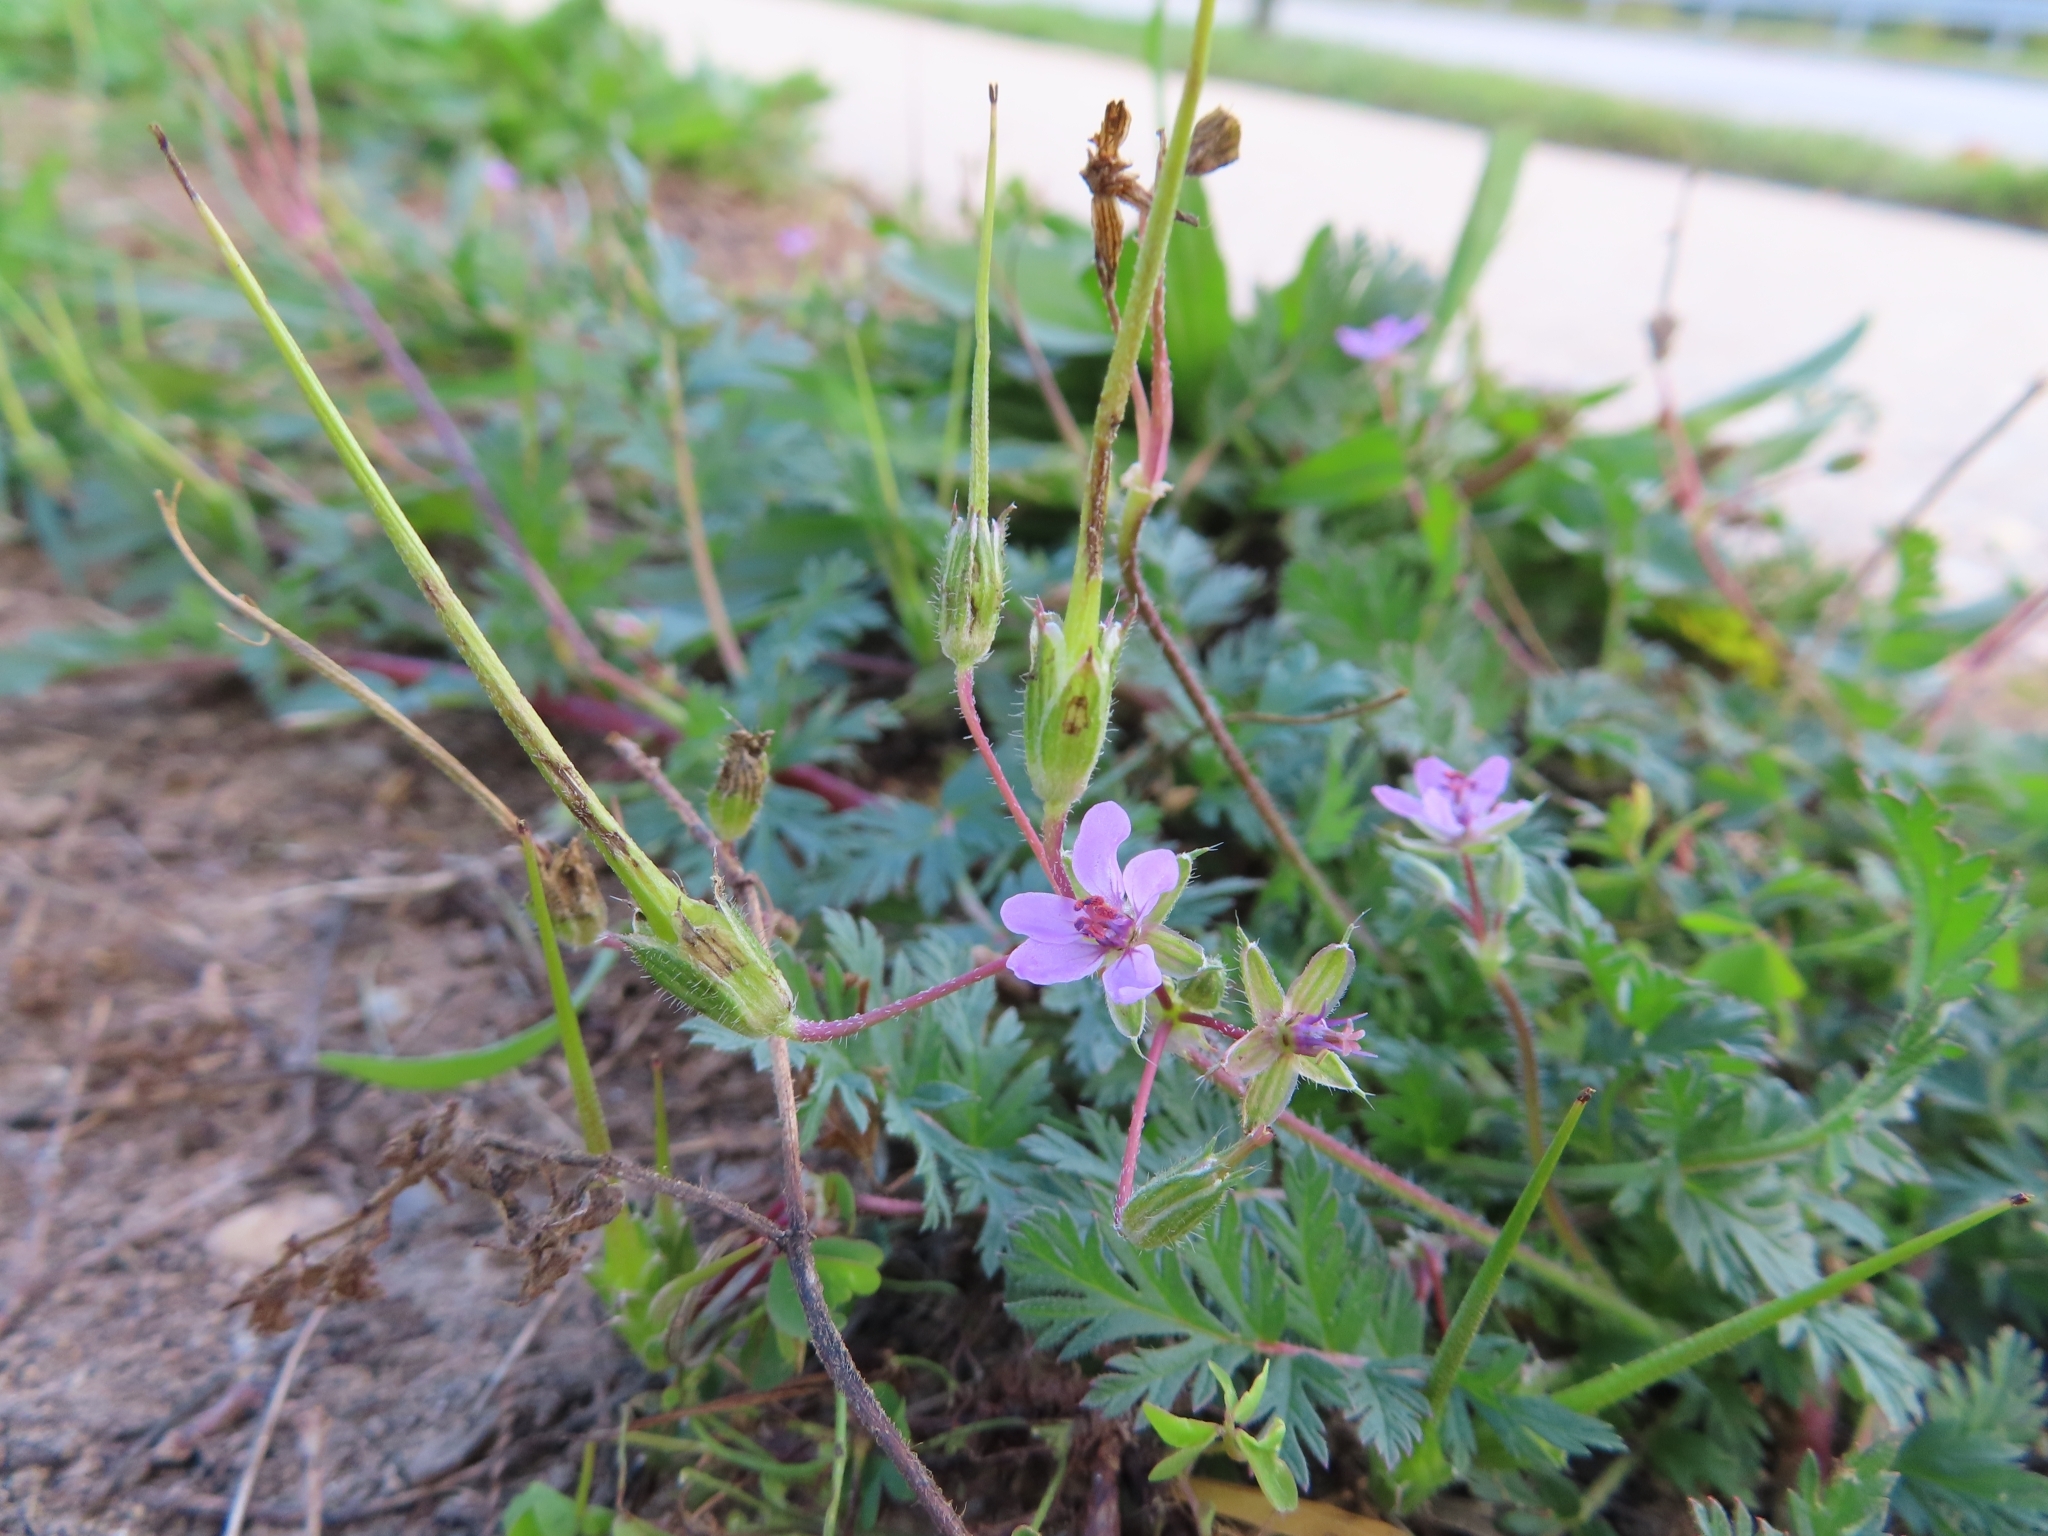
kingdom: Plantae
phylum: Tracheophyta
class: Magnoliopsida
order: Geraniales
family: Geraniaceae
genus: Erodium
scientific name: Erodium cicutarium
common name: Common stork's-bill
